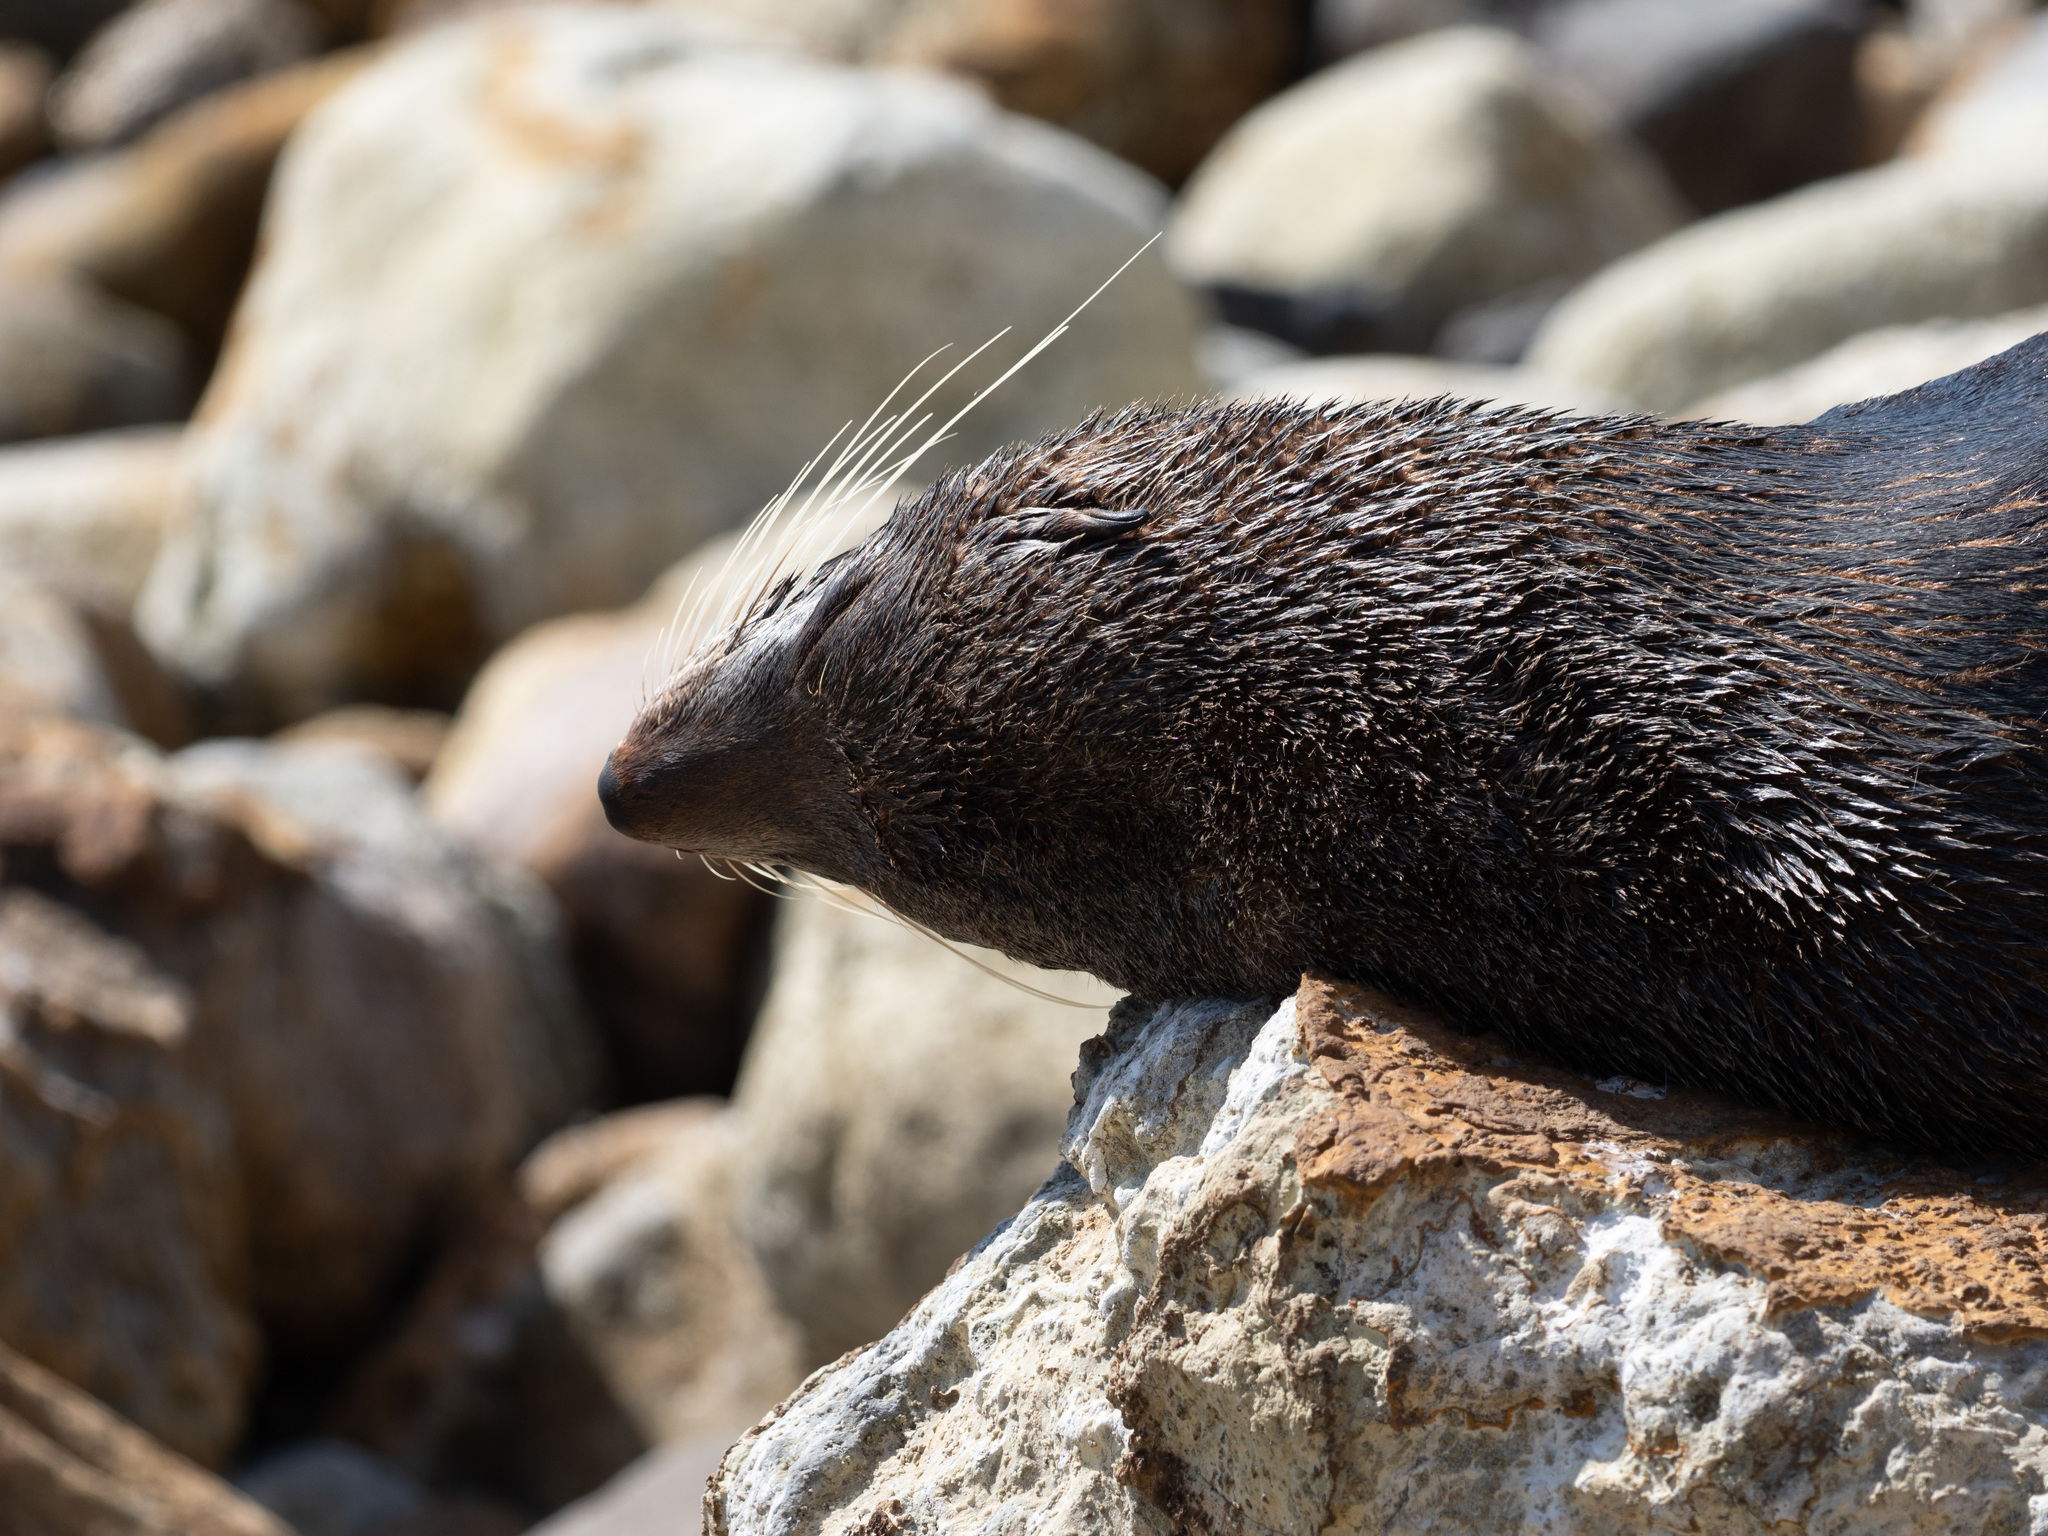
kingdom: Animalia
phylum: Chordata
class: Mammalia
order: Carnivora
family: Otariidae
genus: Arctocephalus
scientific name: Arctocephalus forsteri
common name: New zealand fur seal
